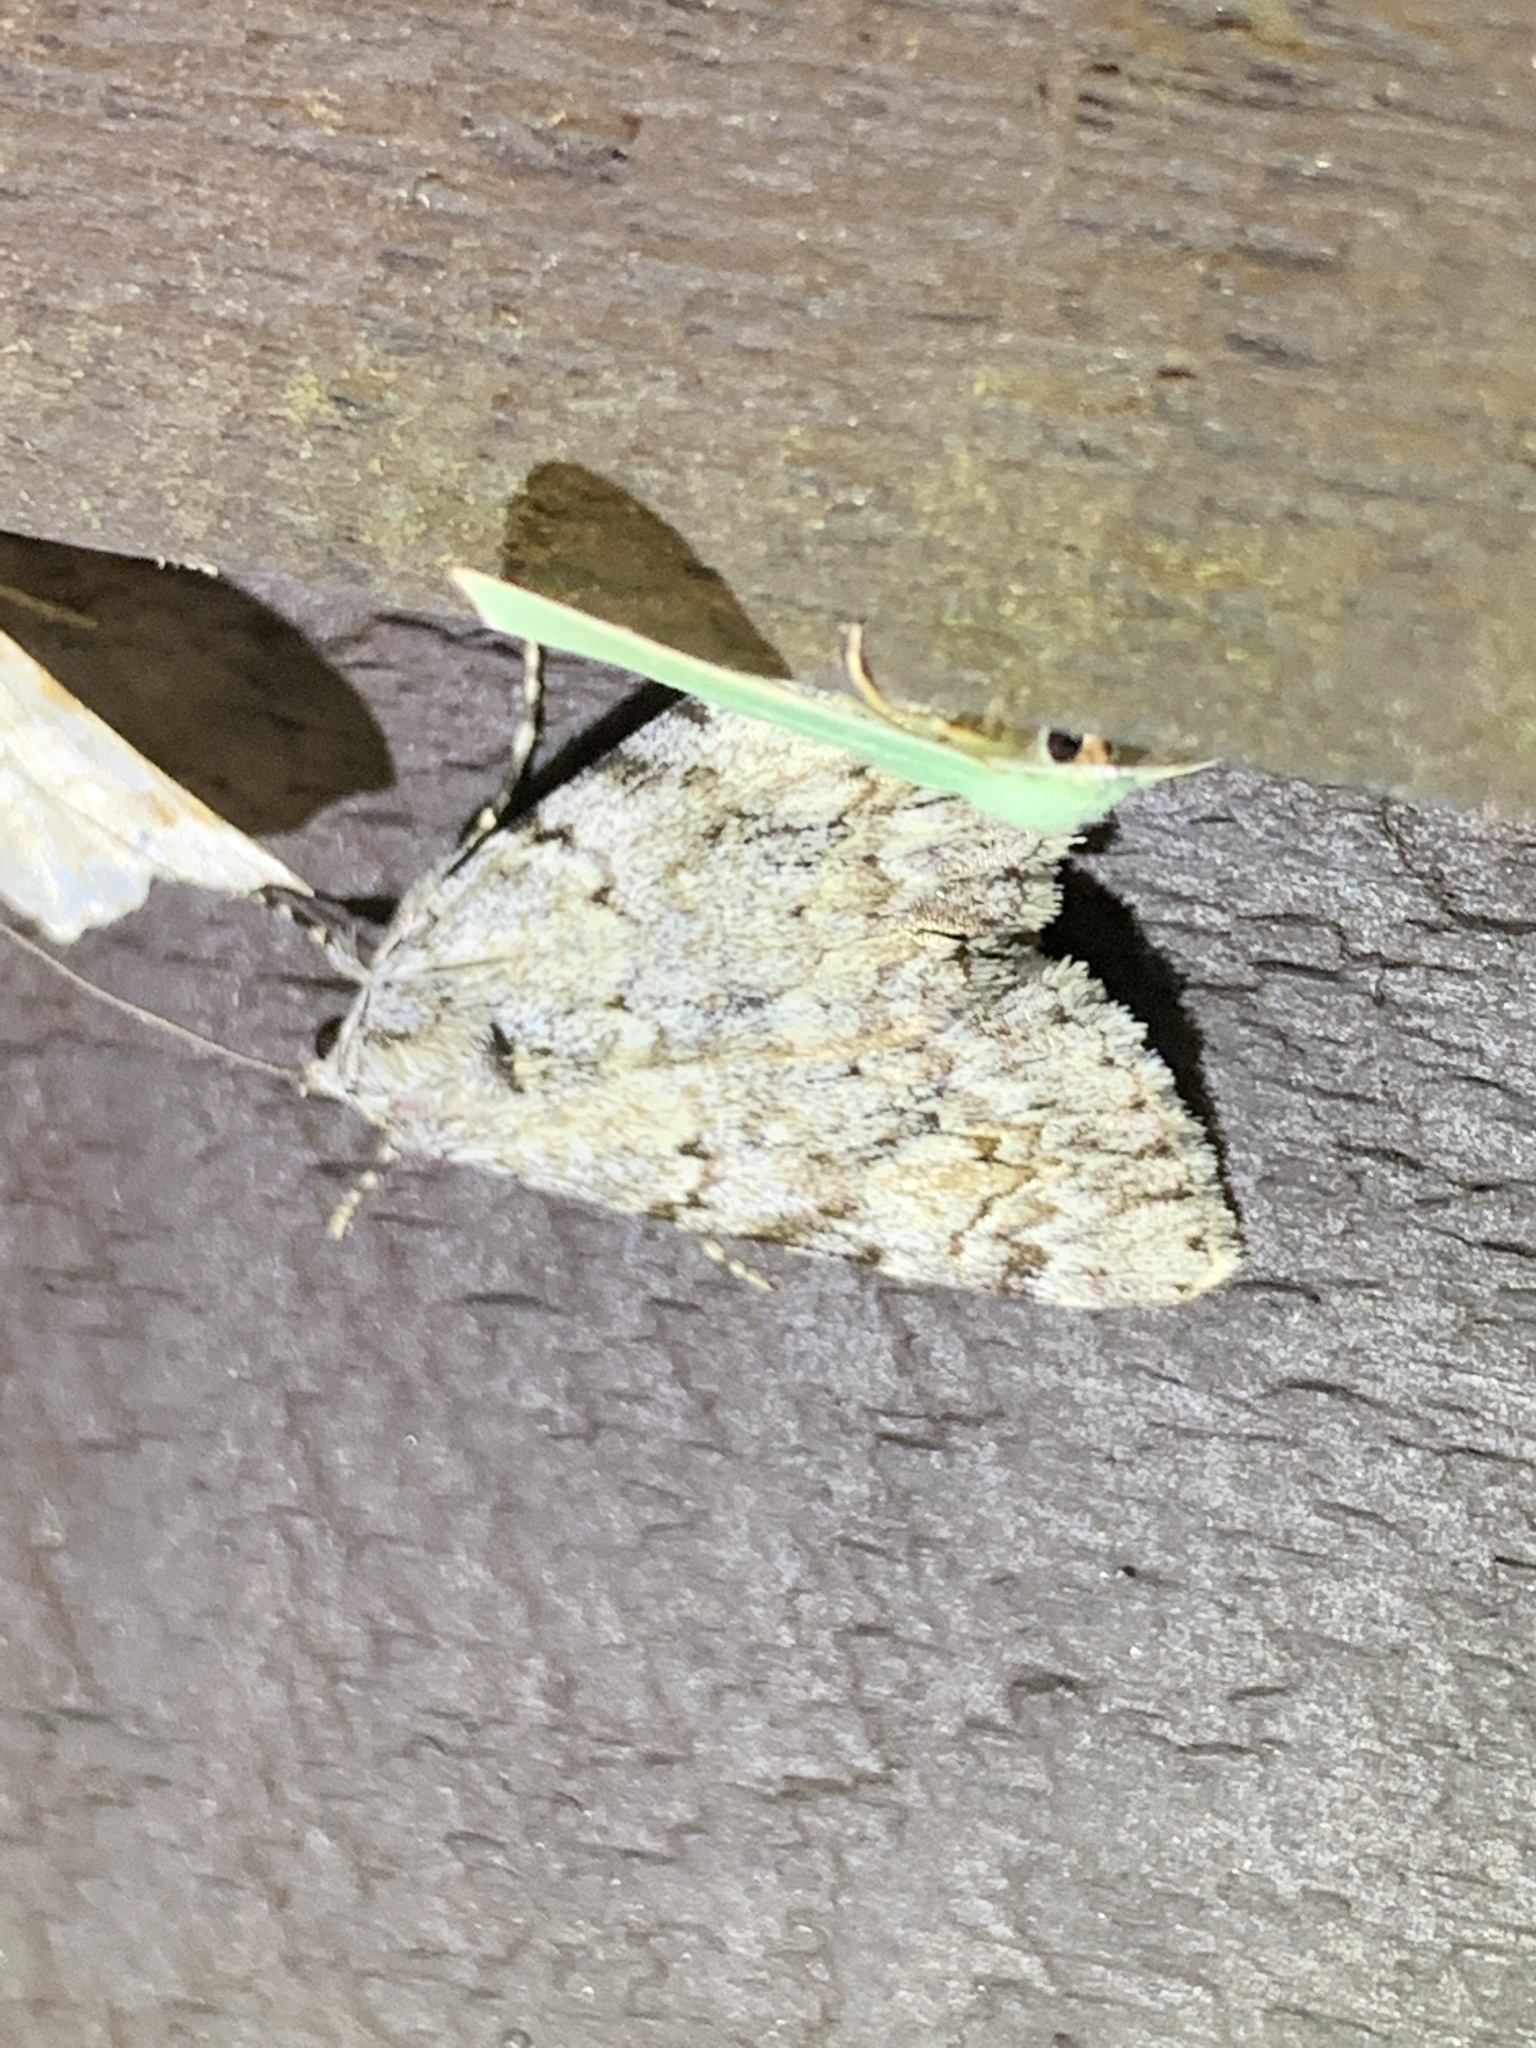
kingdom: Animalia
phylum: Arthropoda
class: Insecta
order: Lepidoptera
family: Erebidae
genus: Catocala
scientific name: Catocala amica
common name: Girlfriend underwing
